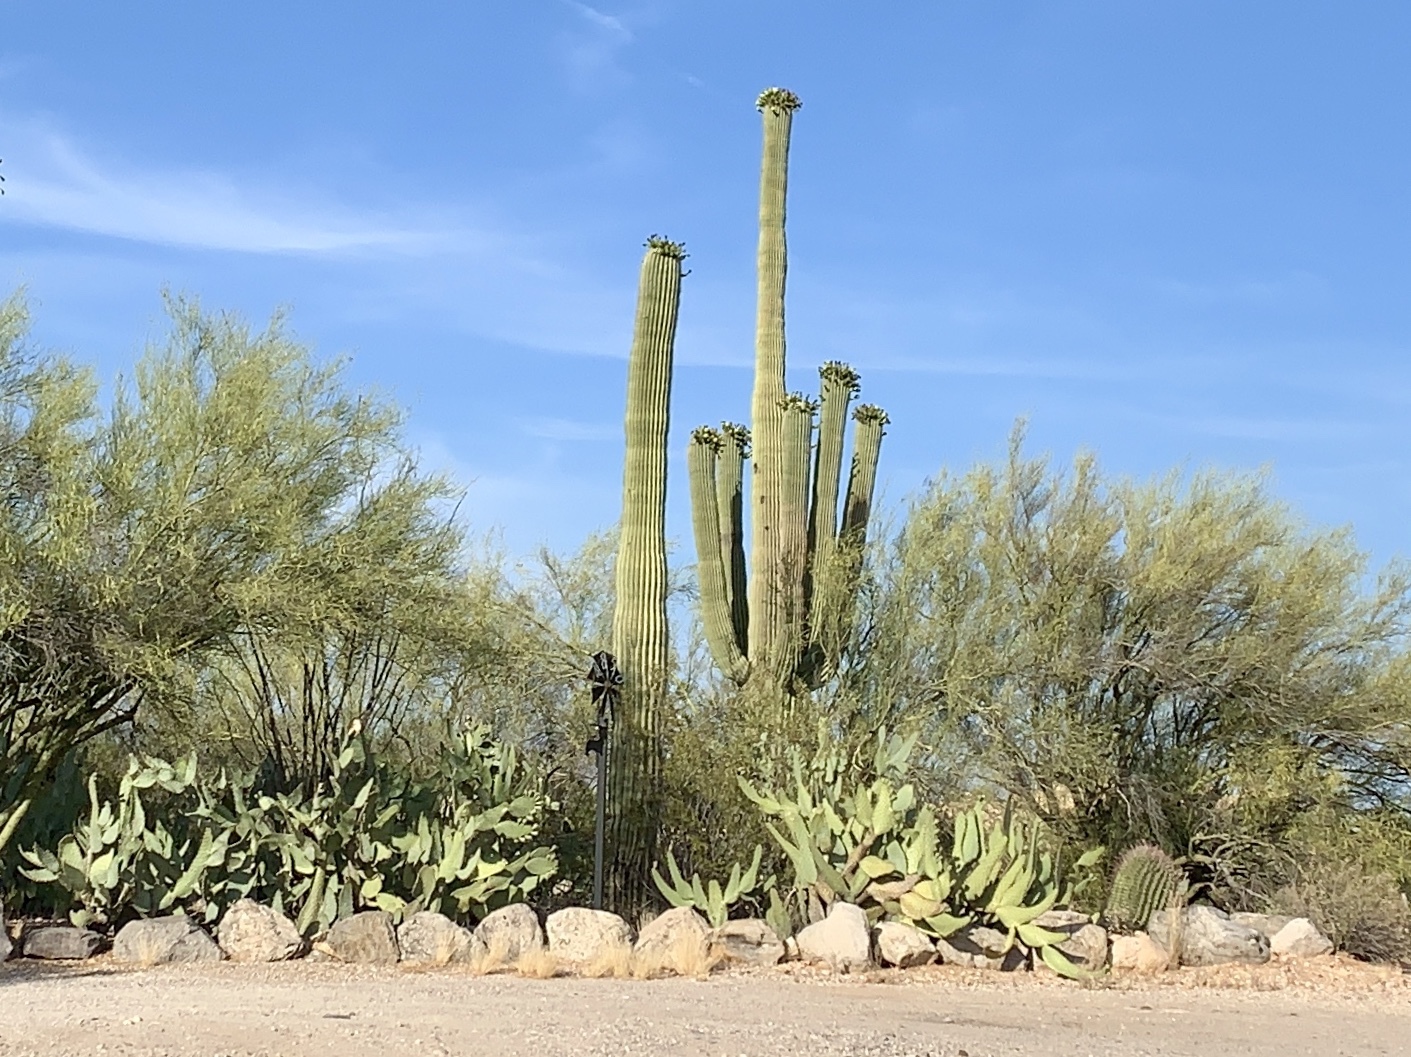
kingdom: Plantae
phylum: Tracheophyta
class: Magnoliopsida
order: Caryophyllales
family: Cactaceae
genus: Carnegiea
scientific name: Carnegiea gigantea
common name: Saguaro
